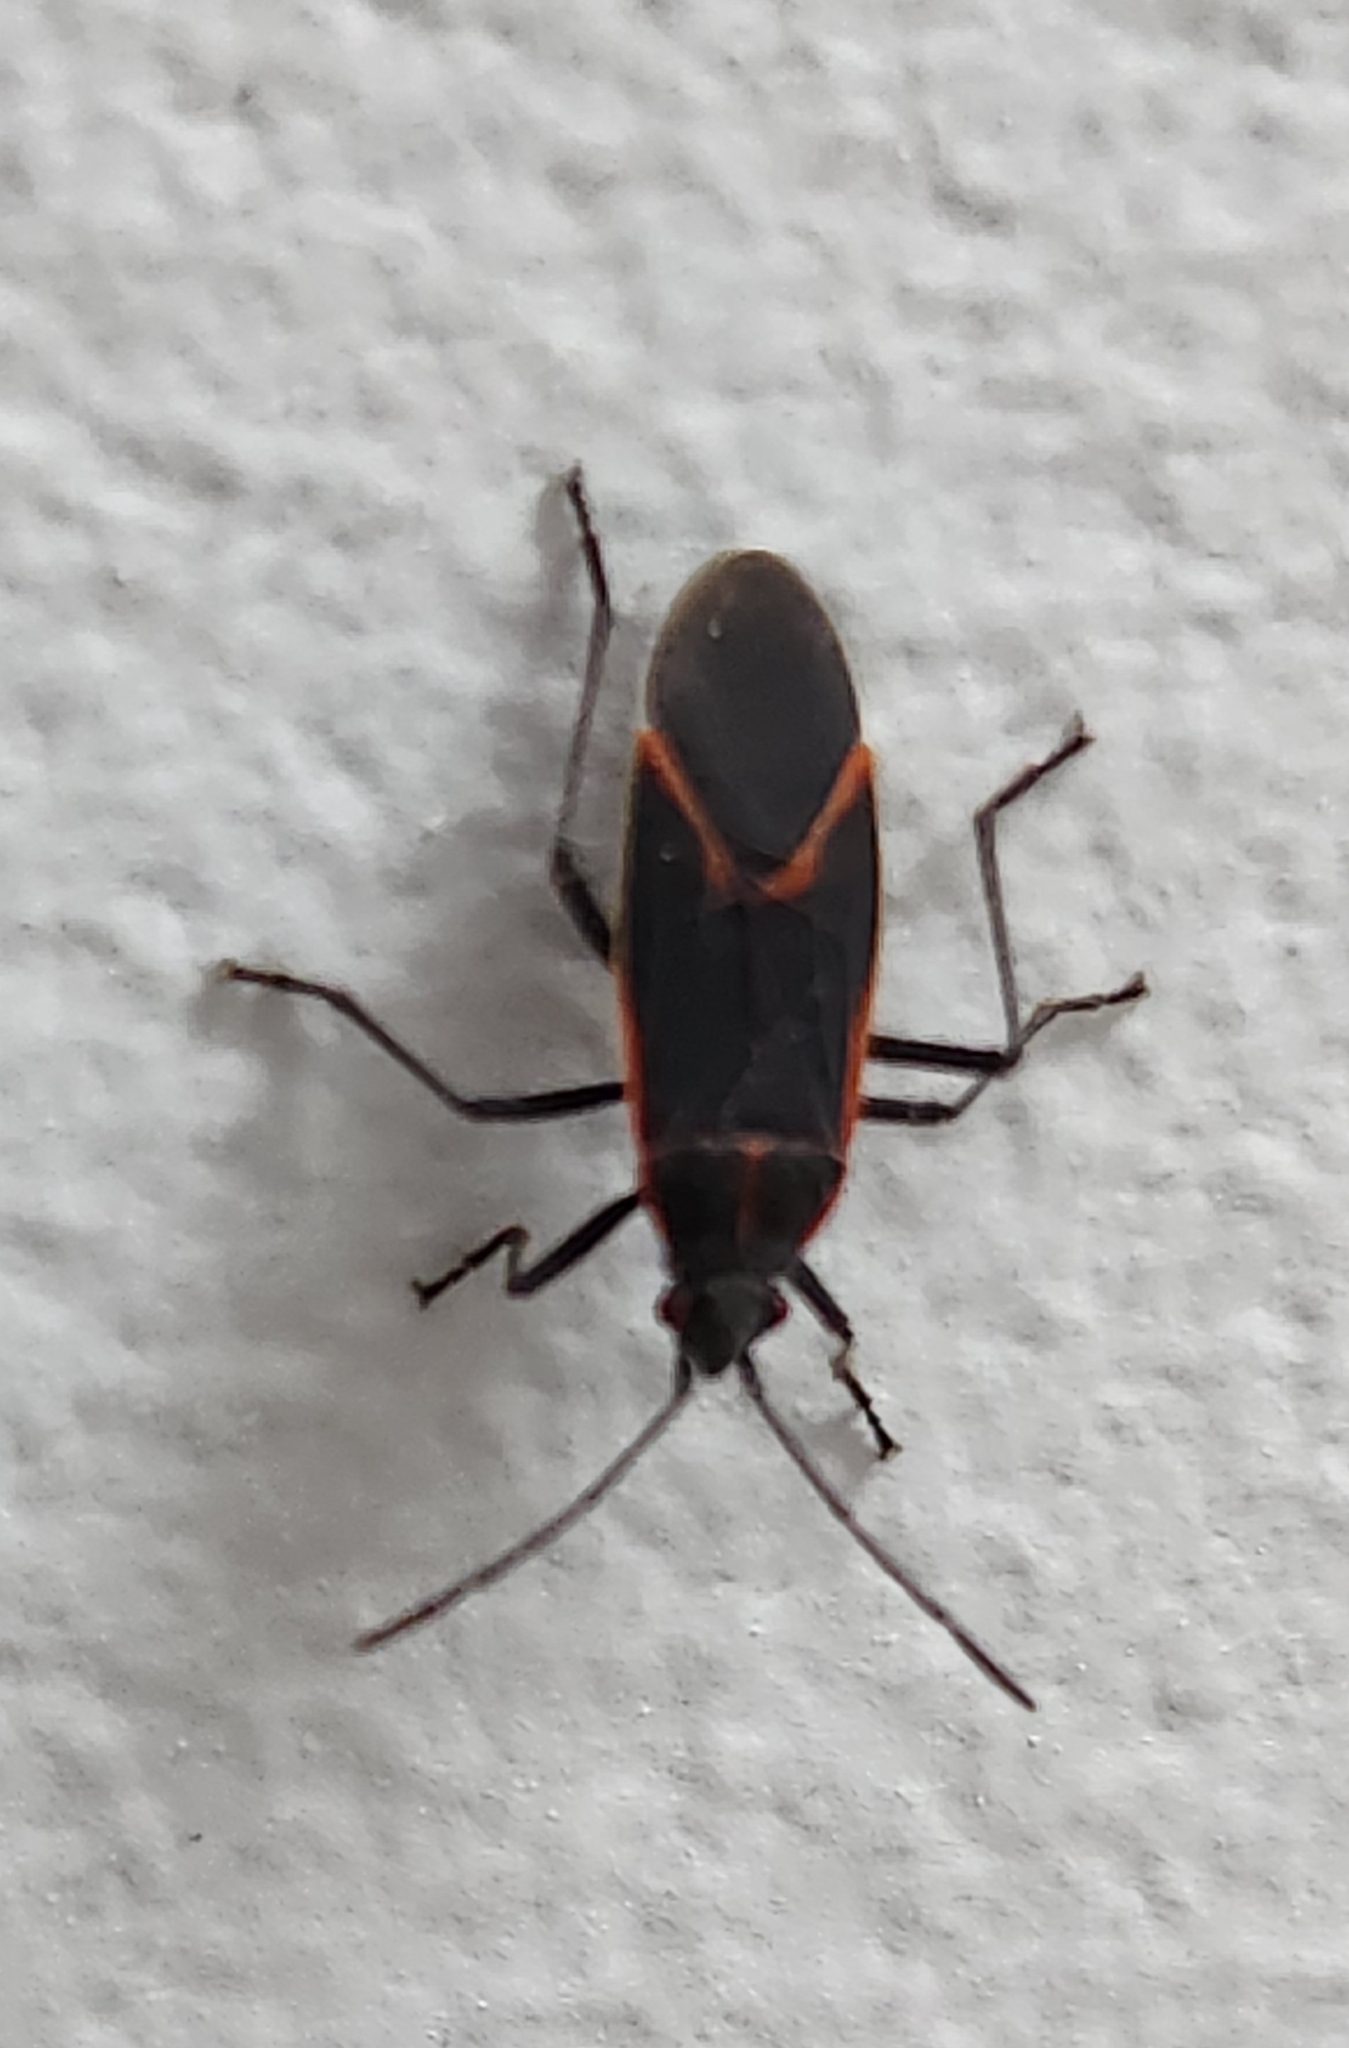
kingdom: Animalia
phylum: Arthropoda
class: Insecta
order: Hemiptera
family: Rhopalidae
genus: Boisea
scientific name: Boisea trivittata
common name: Boxelder bug
